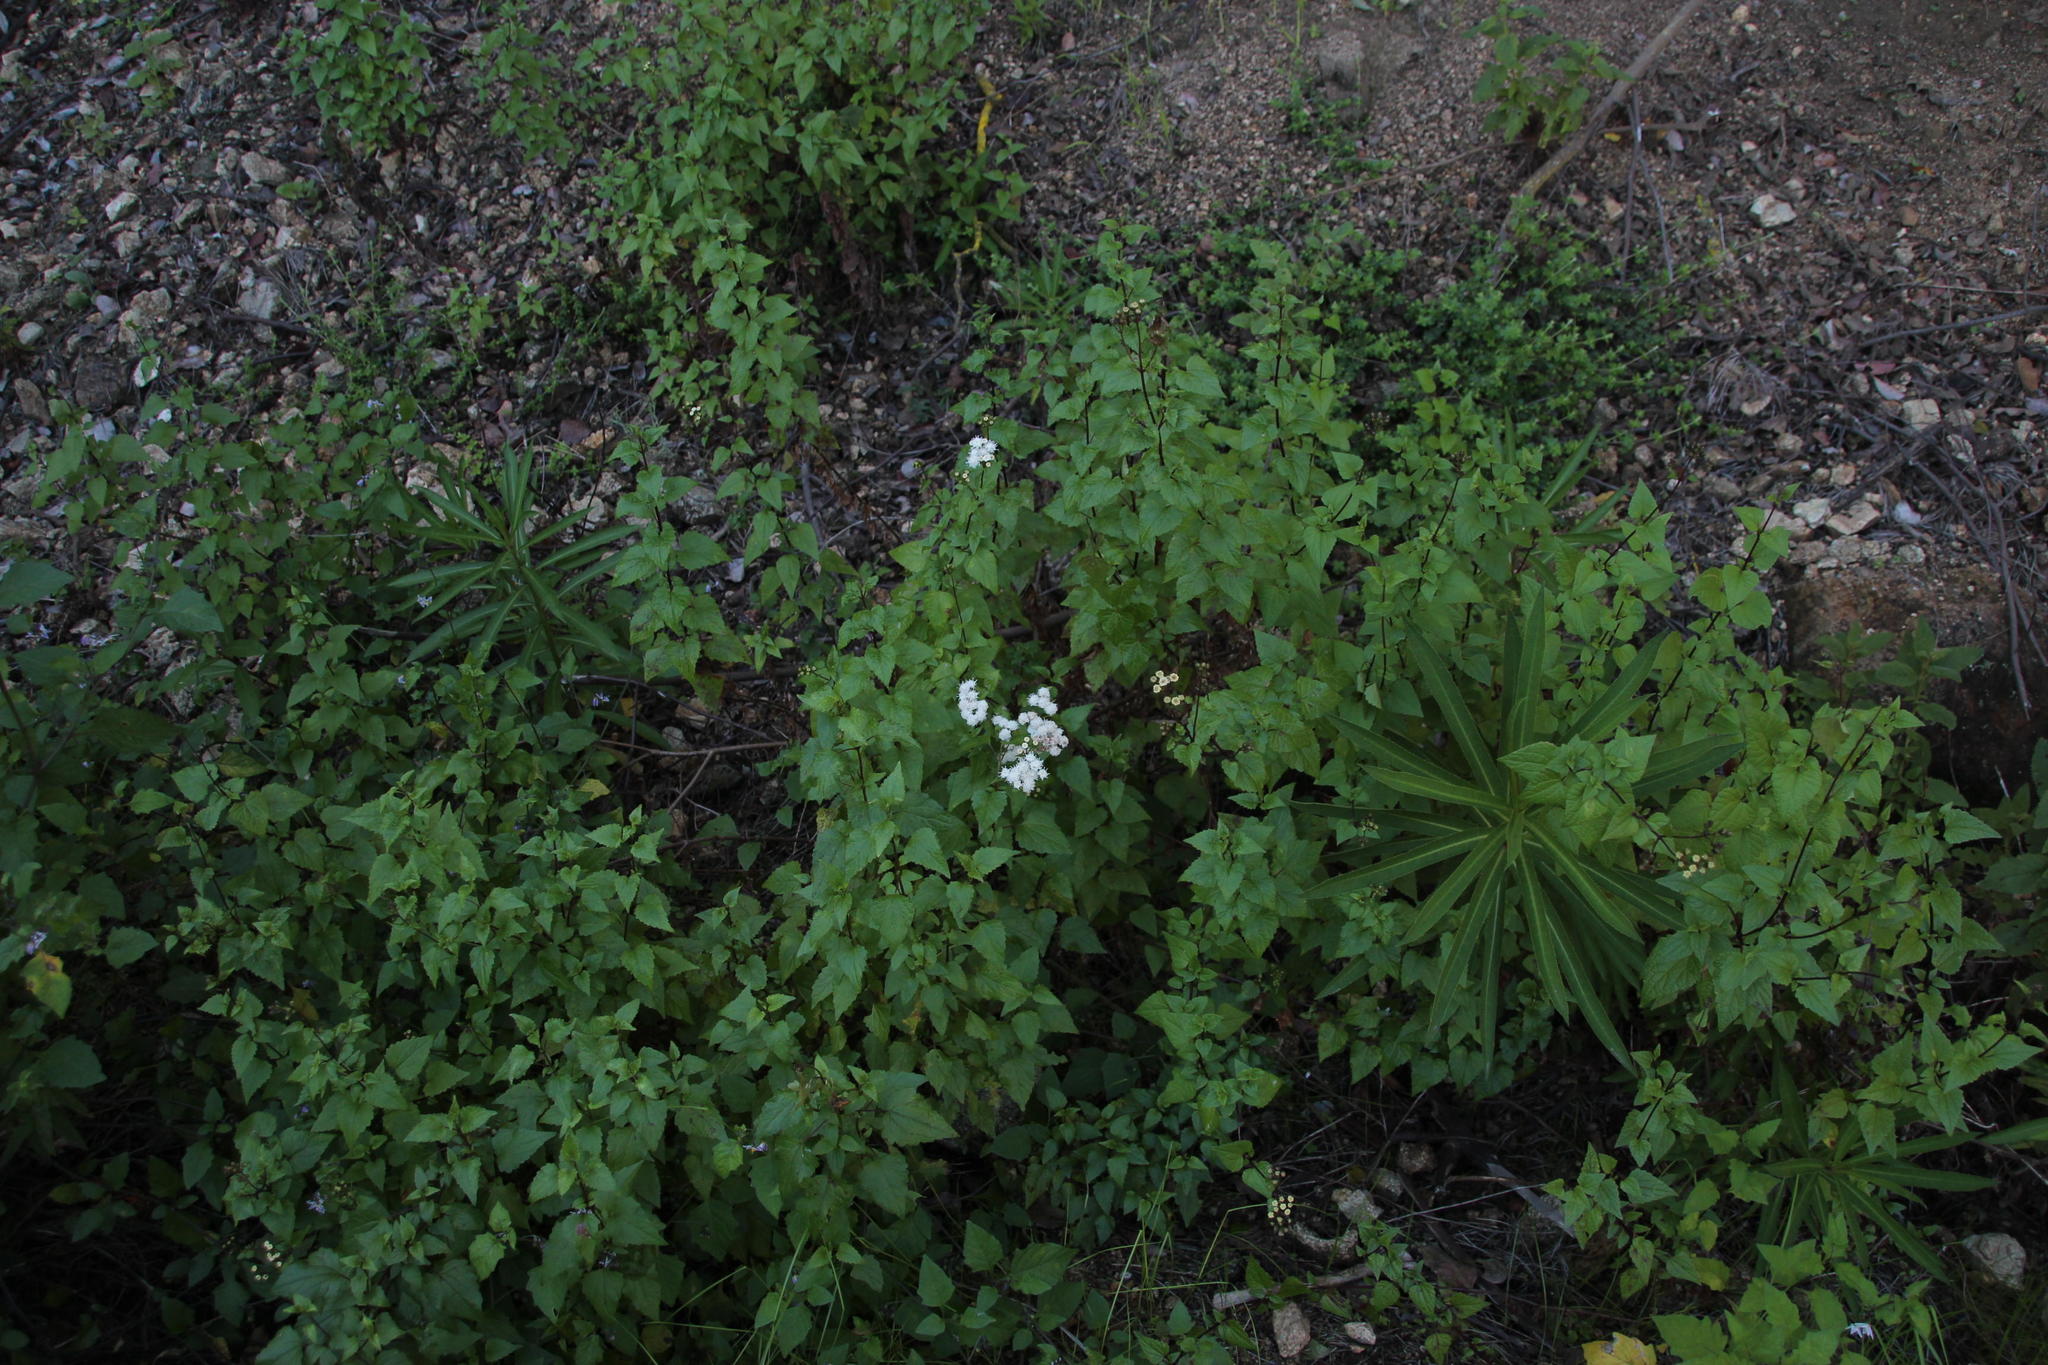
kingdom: Plantae
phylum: Tracheophyta
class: Magnoliopsida
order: Asterales
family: Asteraceae
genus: Ageratina
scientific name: Ageratina glechonophylla
